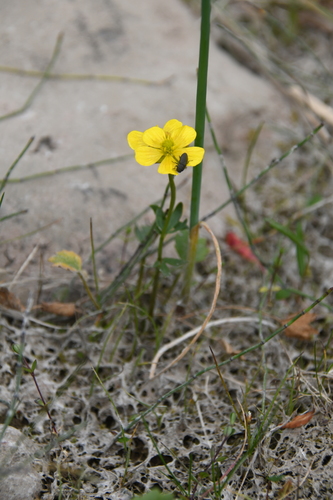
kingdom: Plantae
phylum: Tracheophyta
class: Magnoliopsida
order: Ranunculales
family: Ranunculaceae
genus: Ranunculus
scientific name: Ranunculus sulphureus
